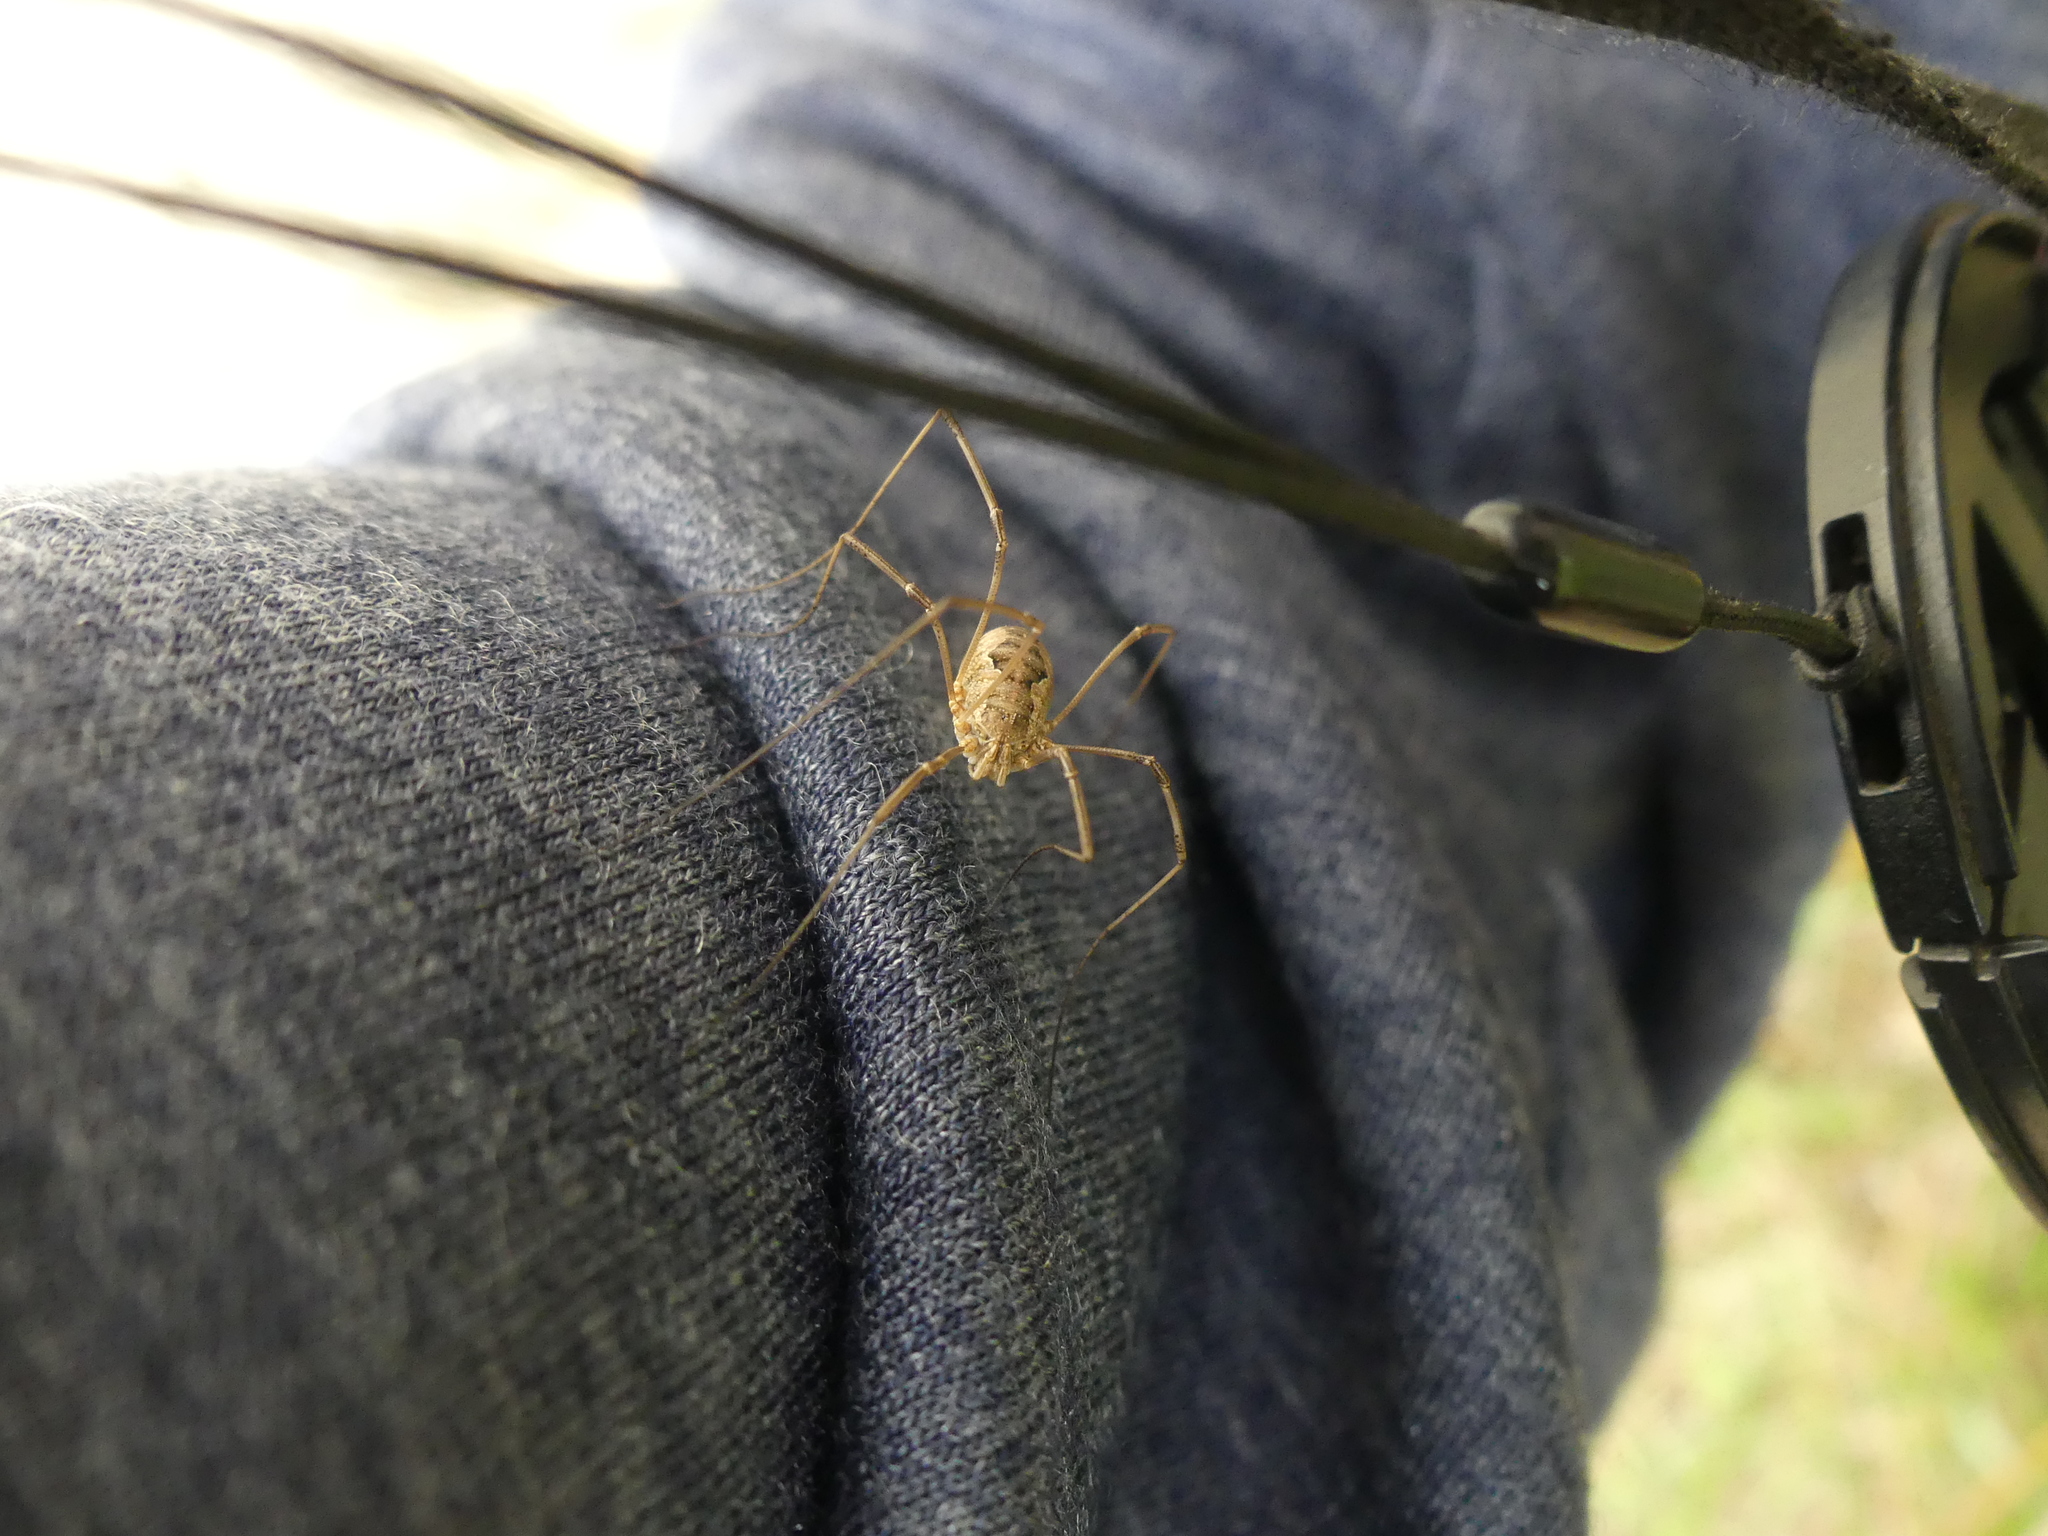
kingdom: Animalia
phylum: Arthropoda
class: Arachnida
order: Opiliones
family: Phalangiidae
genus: Phalangium
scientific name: Phalangium opilio
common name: Daddy longleg
